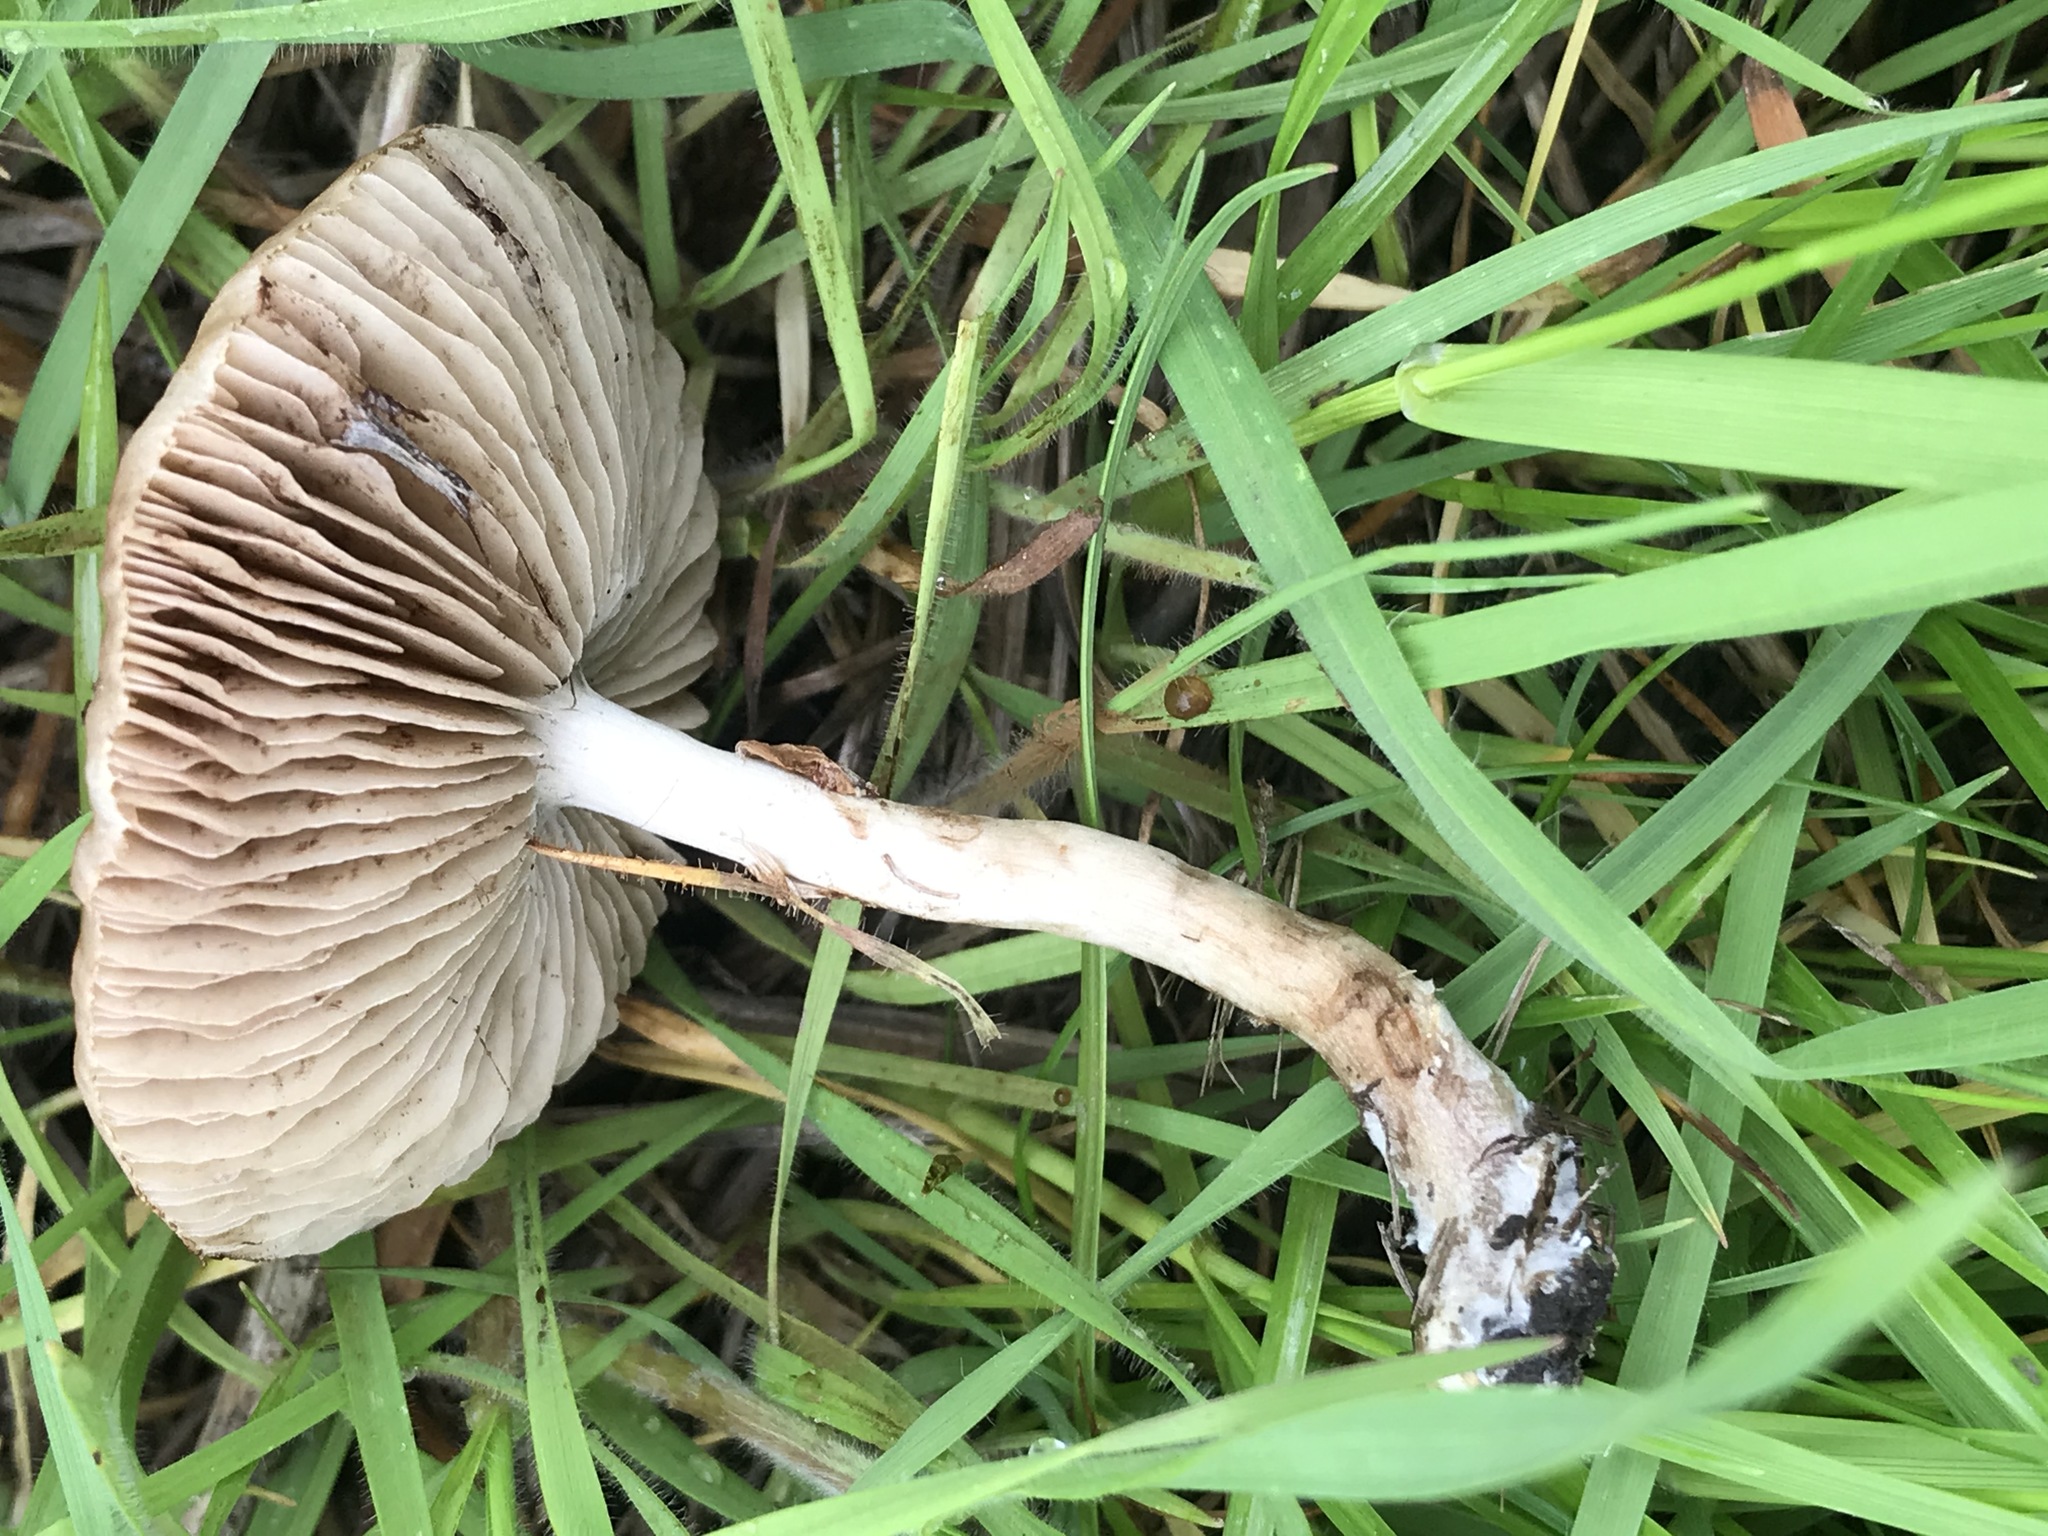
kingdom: Fungi
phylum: Basidiomycota
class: Agaricomycetes
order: Agaricales
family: Strophariaceae
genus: Agrocybe
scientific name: Agrocybe pediades
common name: Common fieldcap
